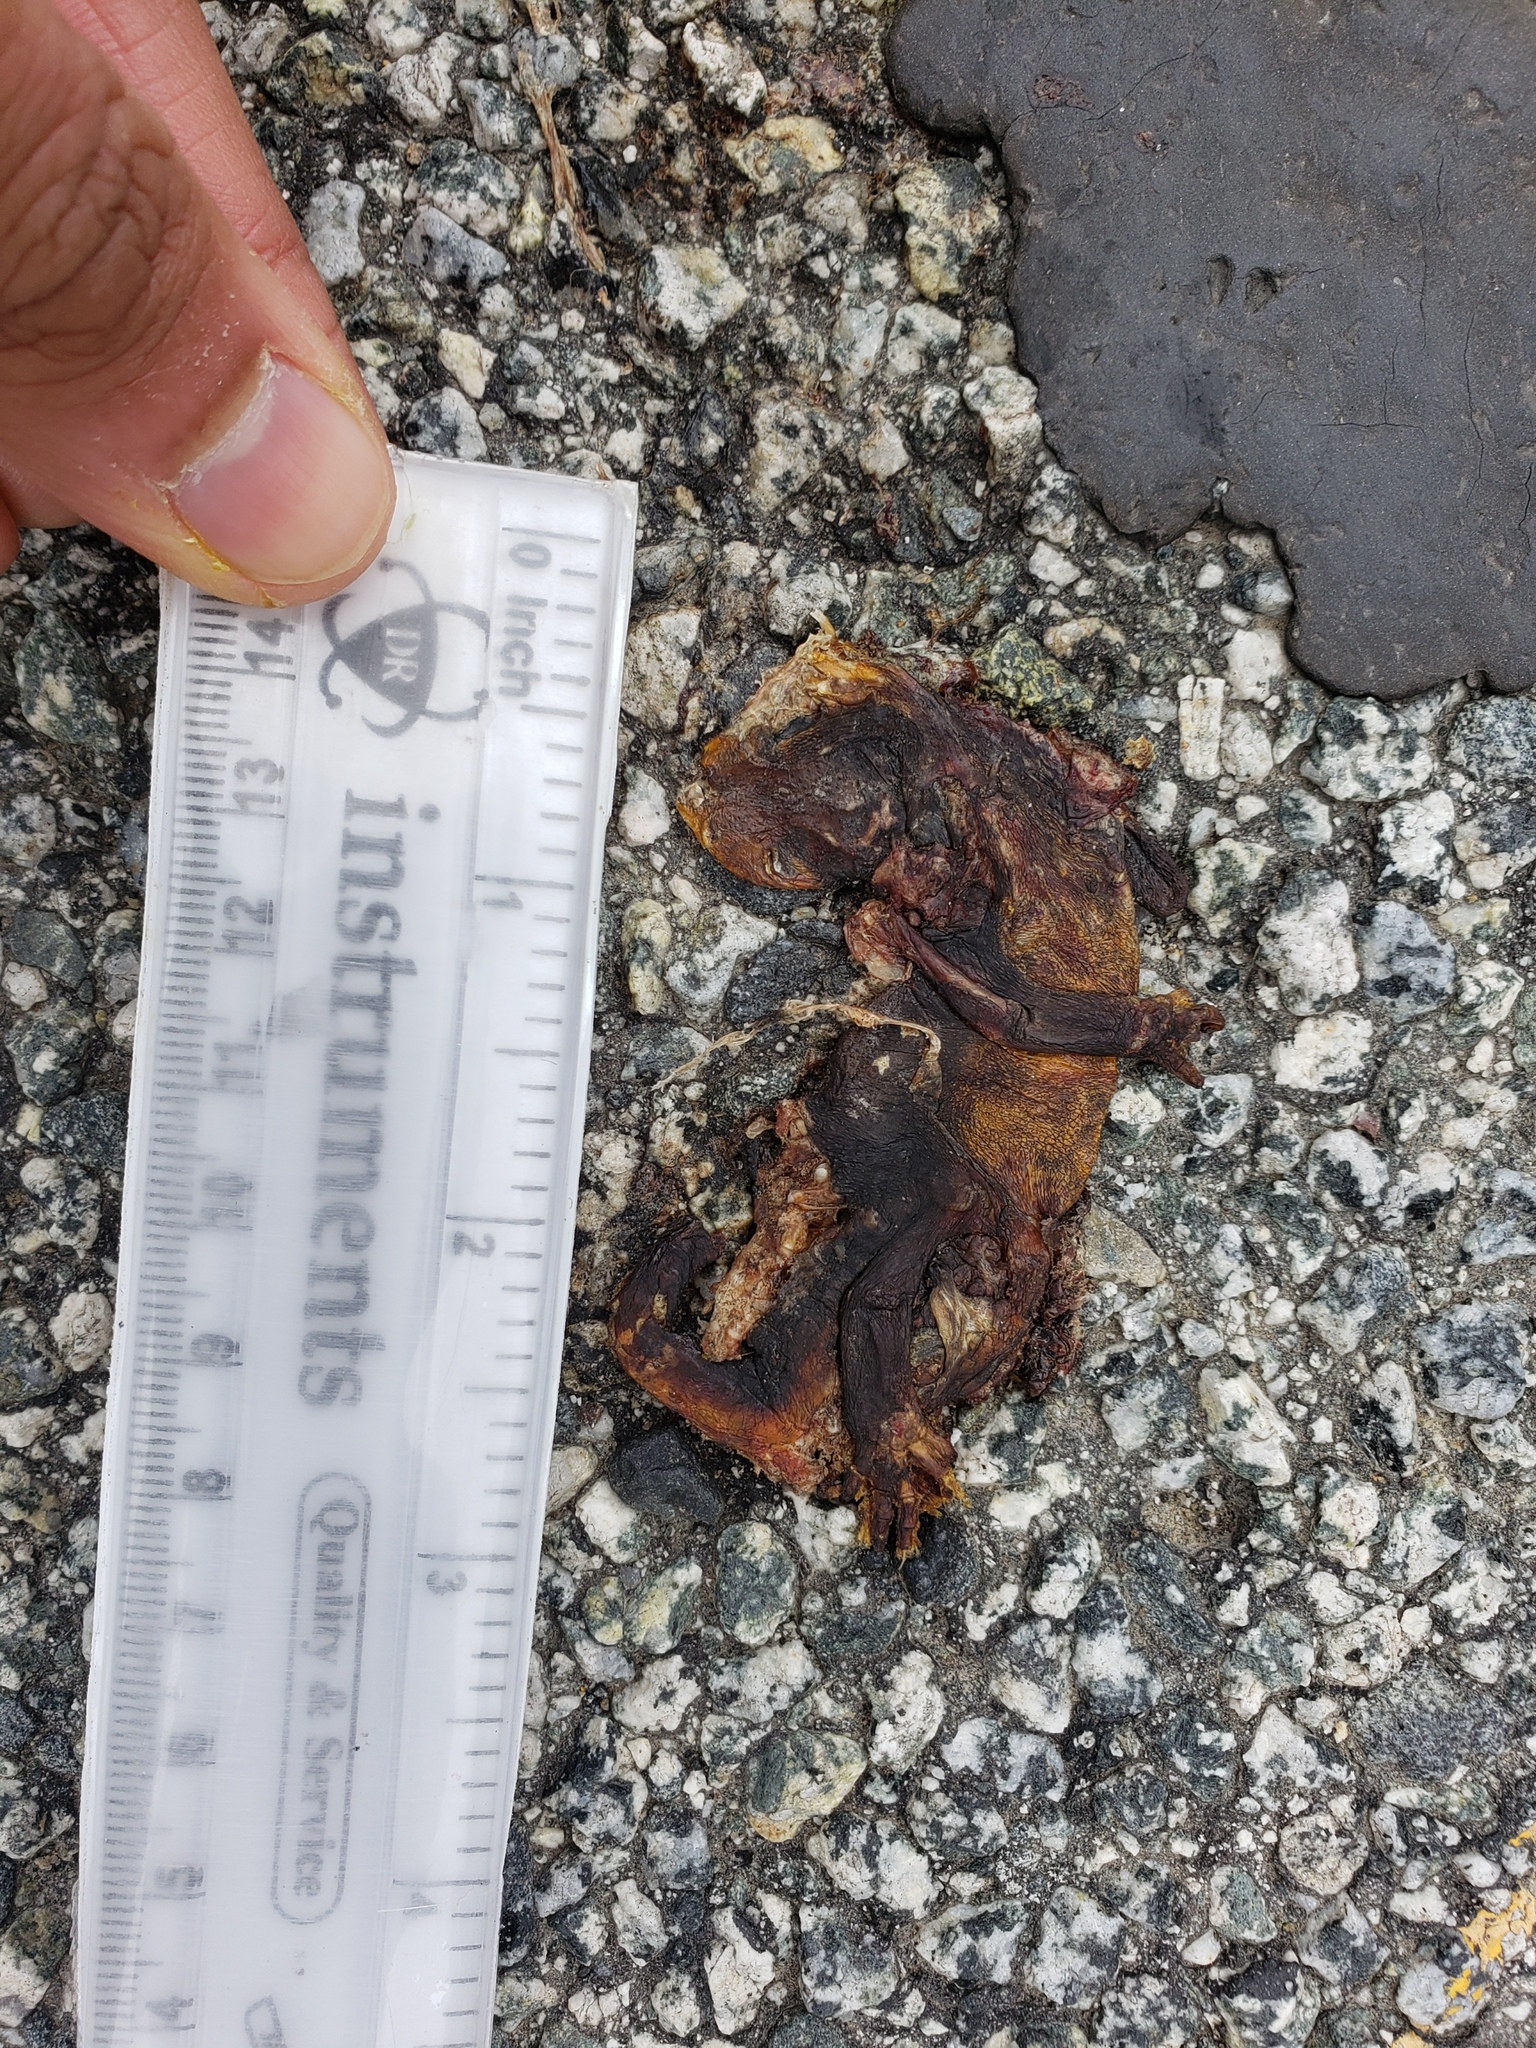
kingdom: Animalia
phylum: Chordata
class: Amphibia
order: Caudata
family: Salamandridae
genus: Taricha
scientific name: Taricha
